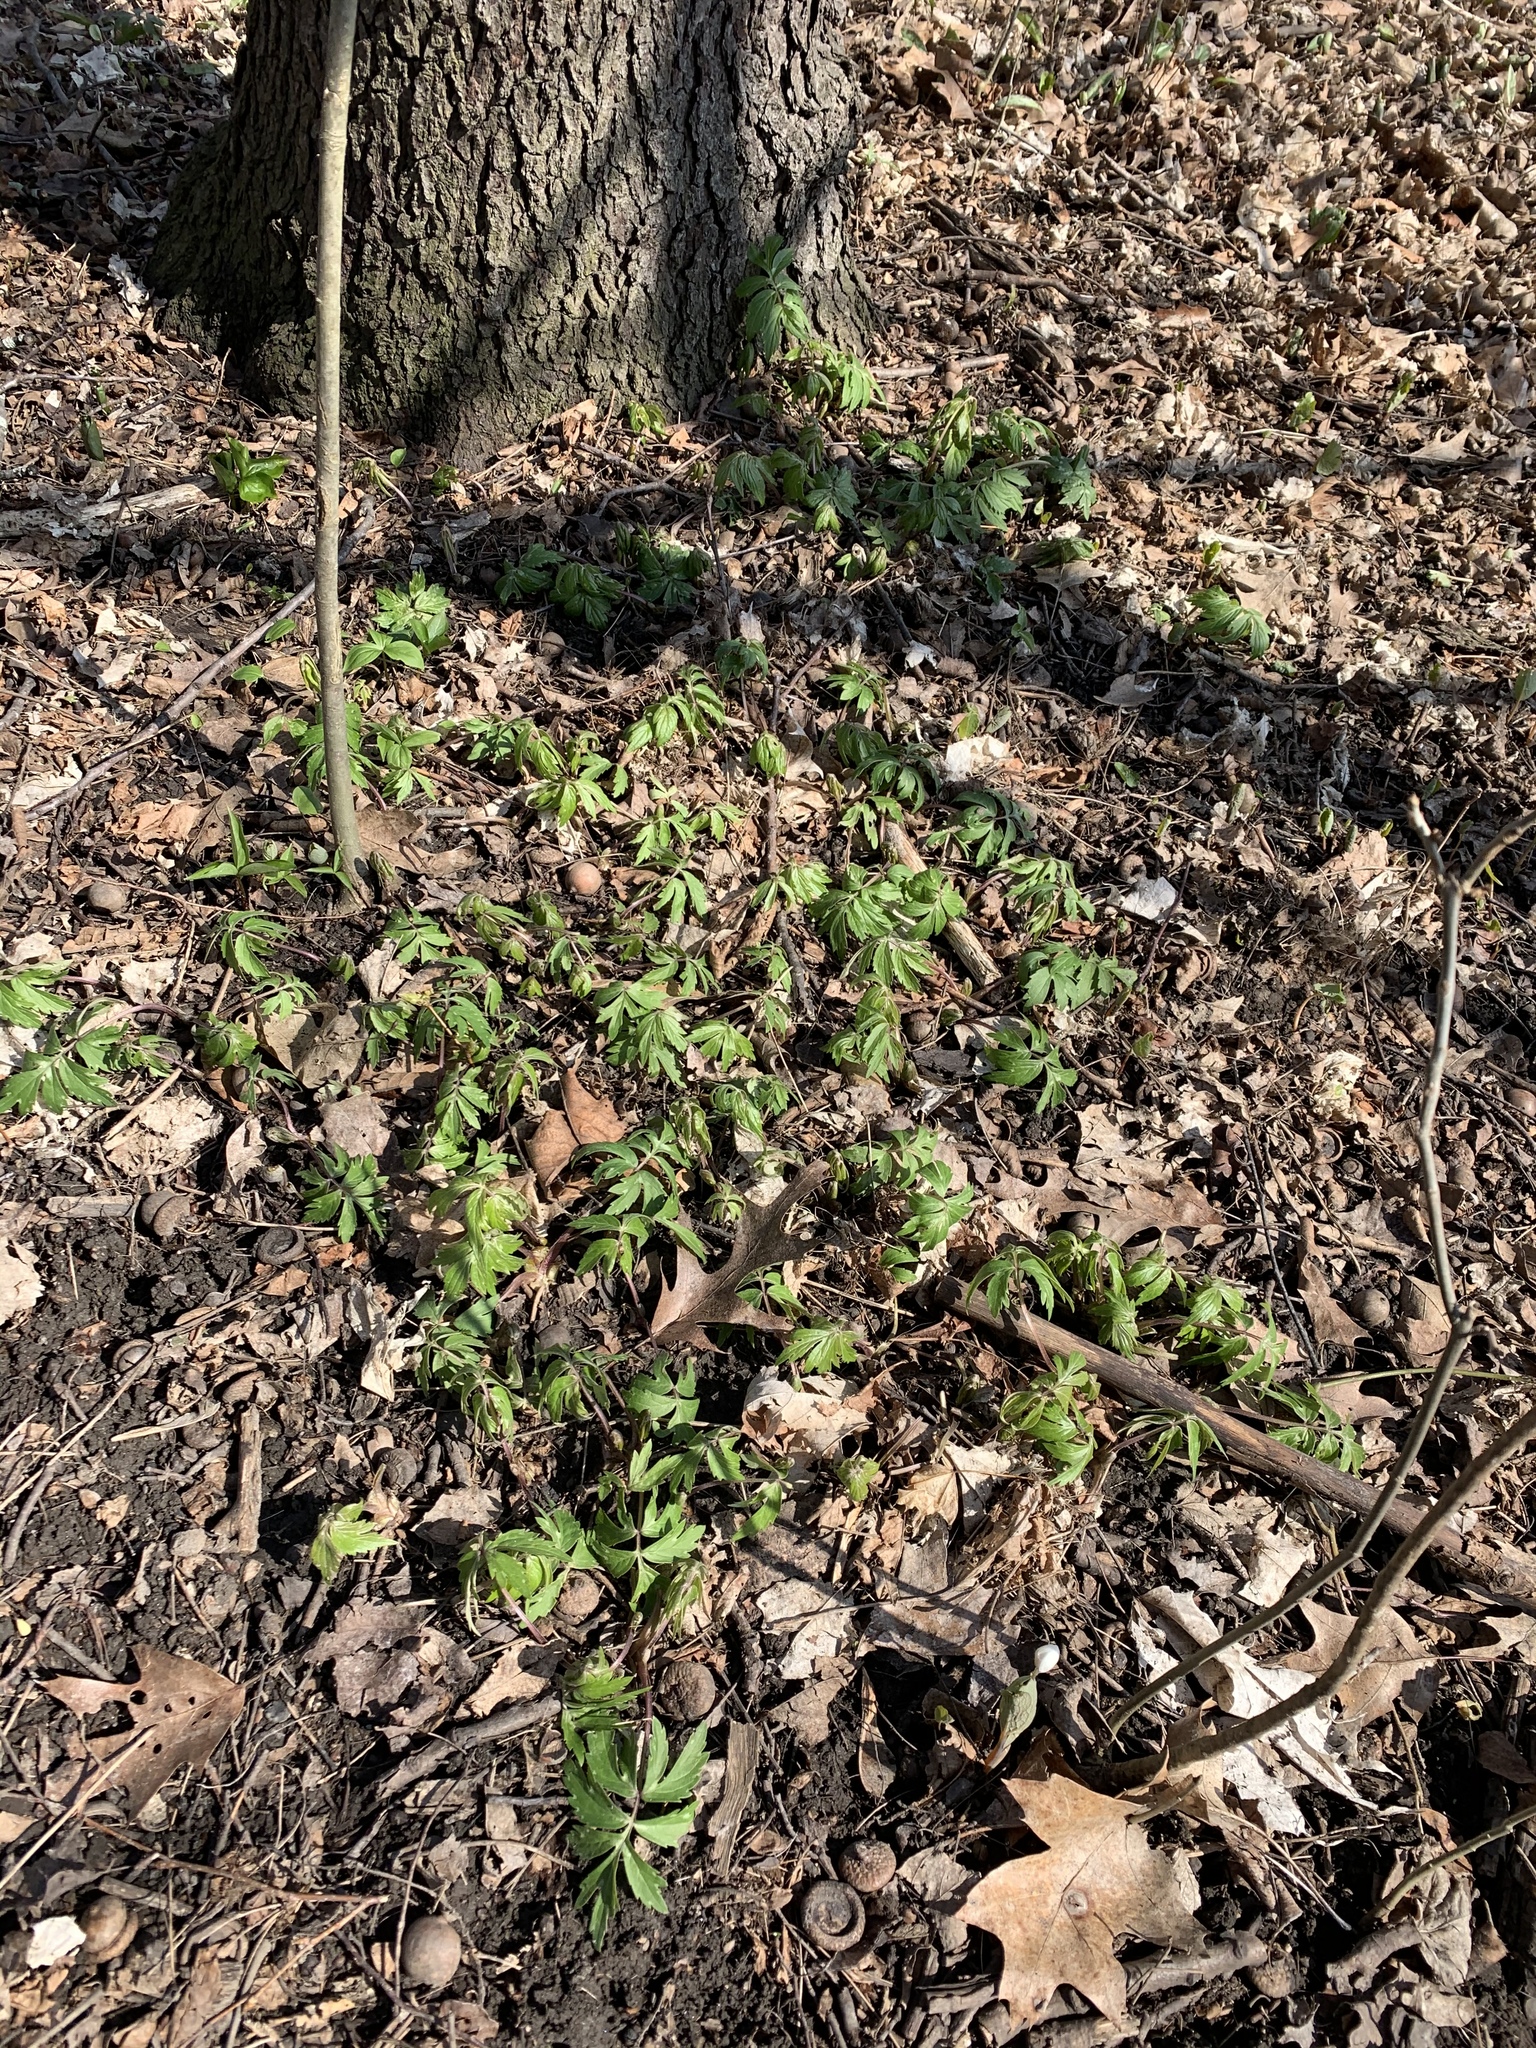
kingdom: Plantae
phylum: Tracheophyta
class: Magnoliopsida
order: Boraginales
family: Hydrophyllaceae
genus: Hydrophyllum
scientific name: Hydrophyllum virginianum
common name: Virginia waterleaf
